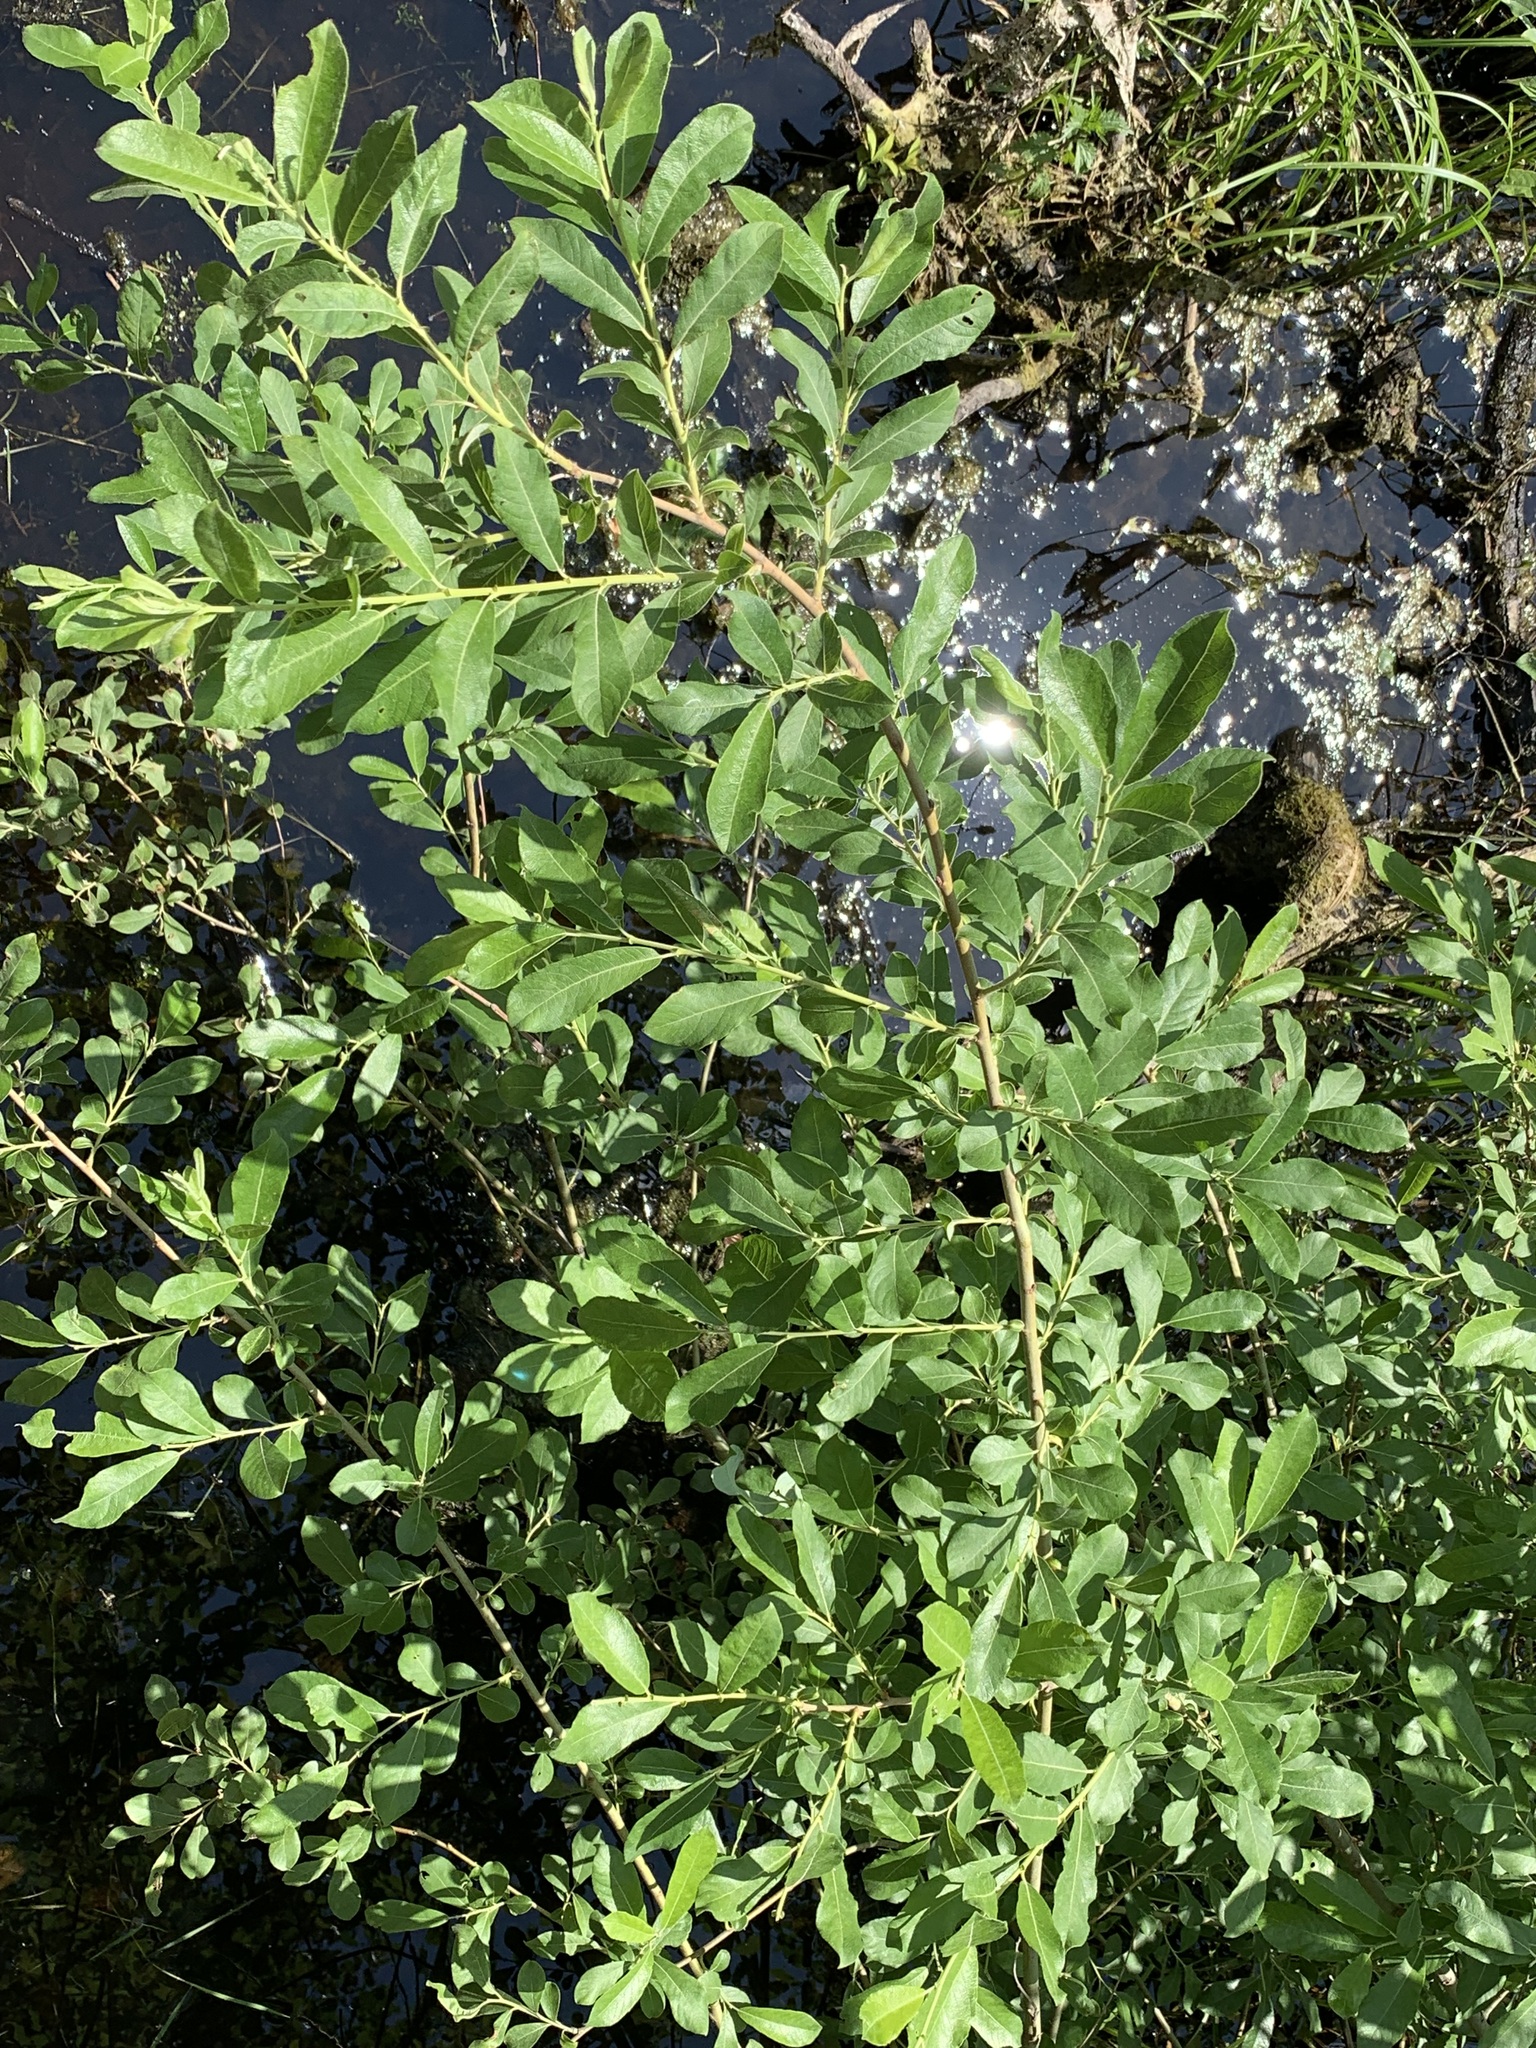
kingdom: Plantae
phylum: Tracheophyta
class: Magnoliopsida
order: Malpighiales
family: Salicaceae
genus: Salix
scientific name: Salix cinerea
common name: Common sallow
